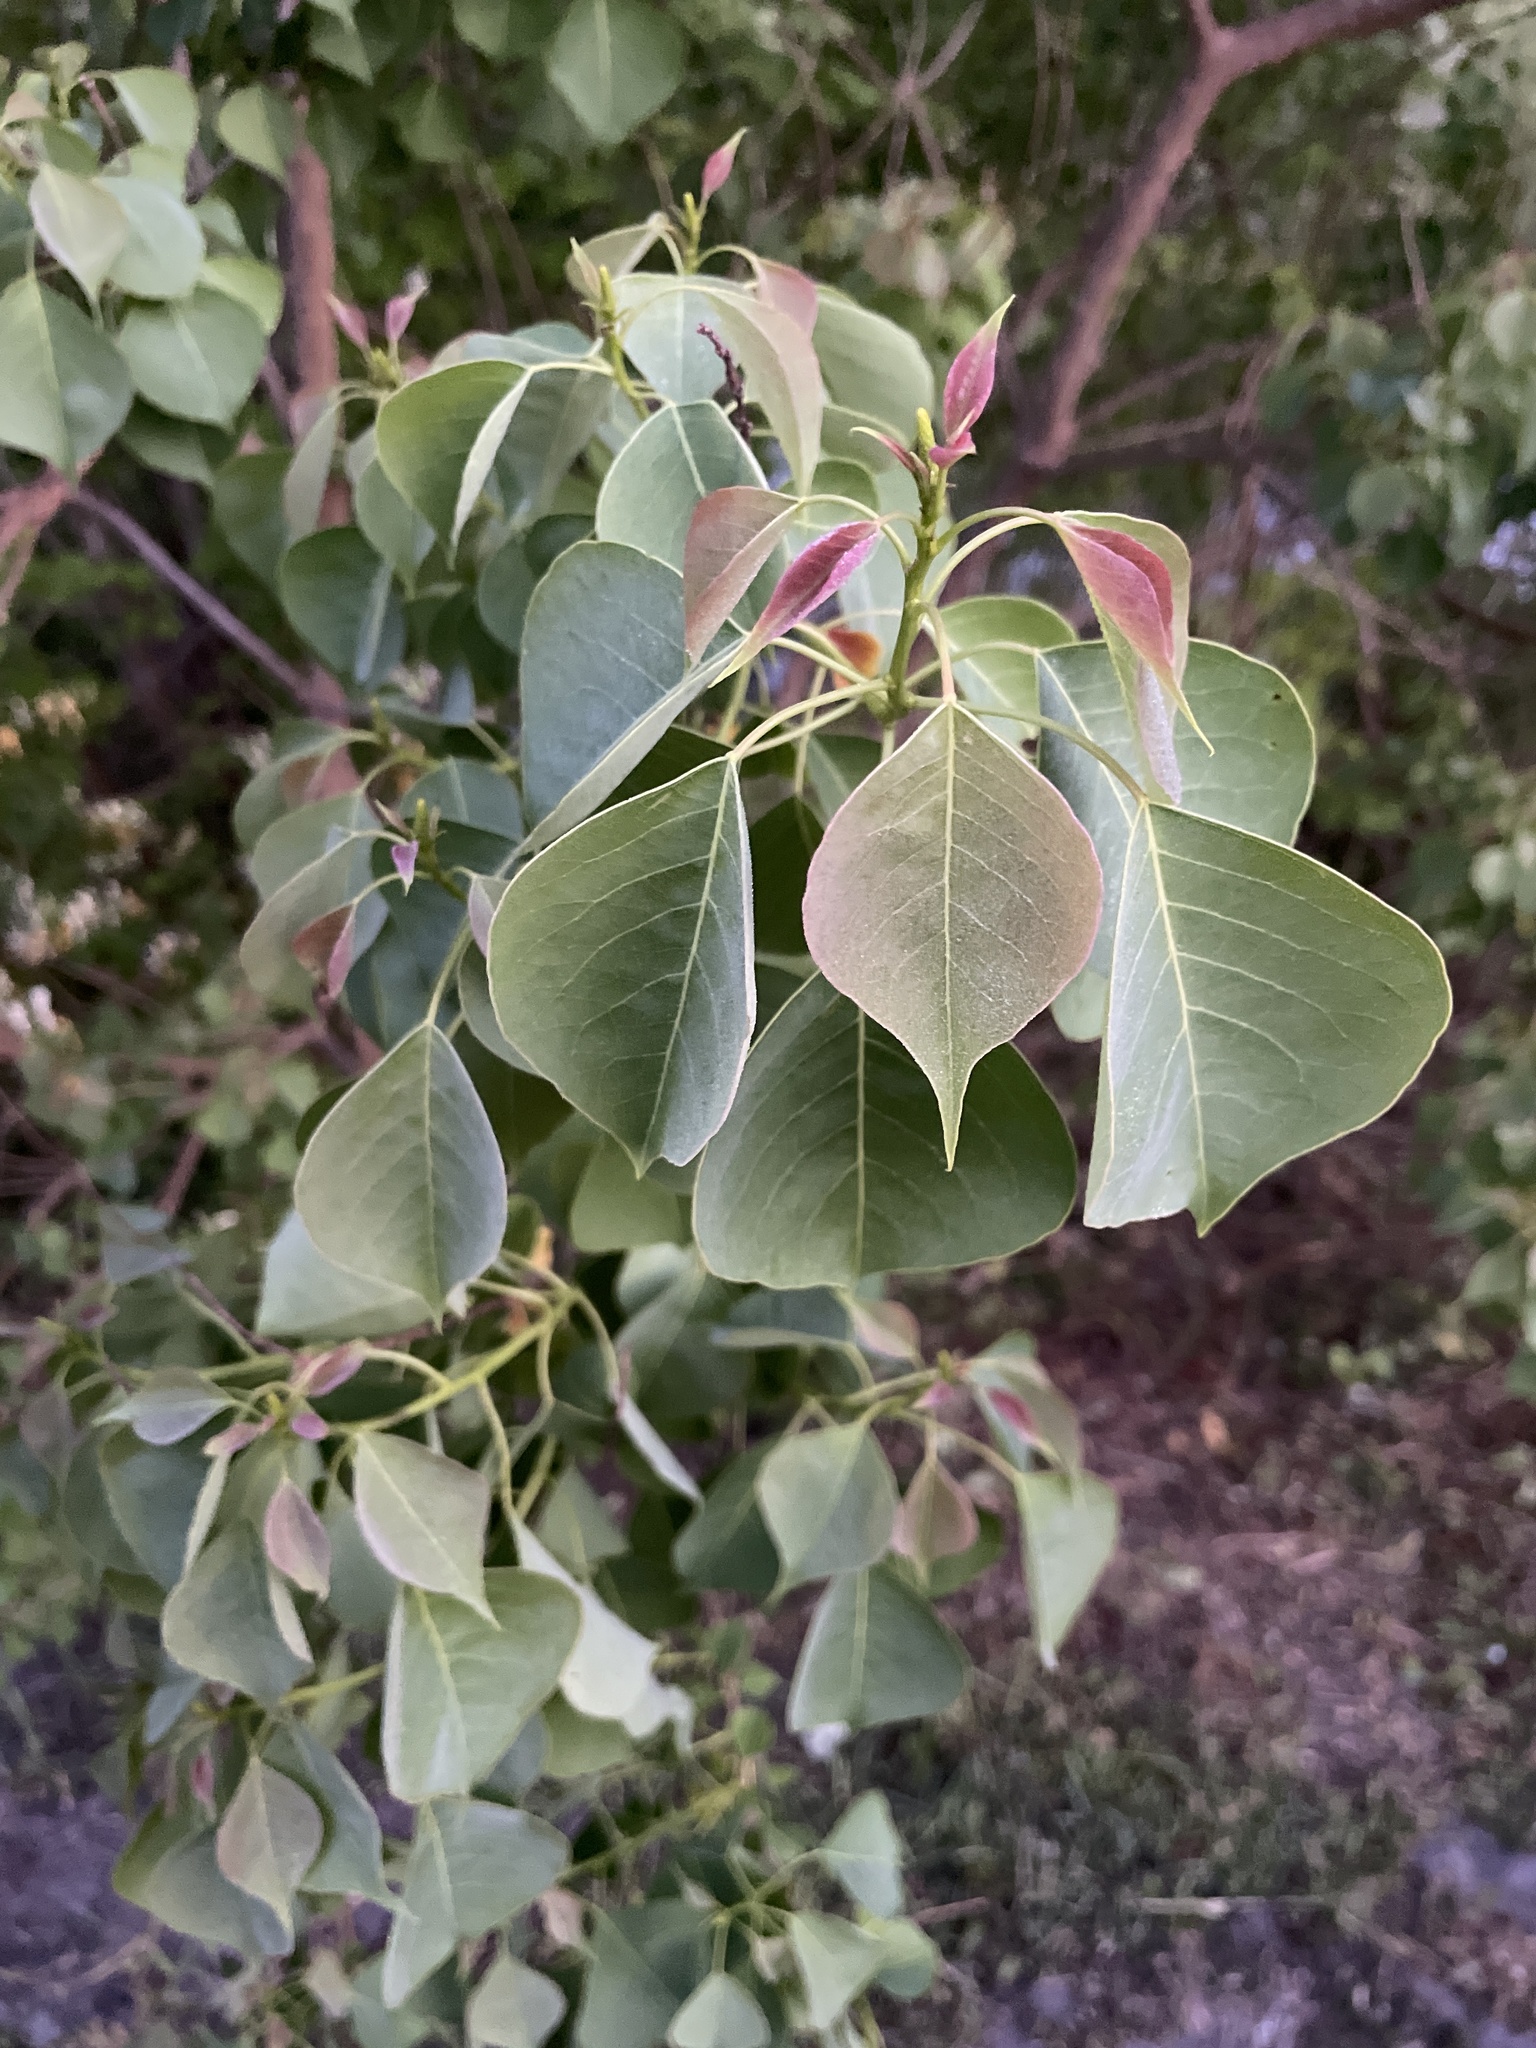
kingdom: Plantae
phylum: Tracheophyta
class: Magnoliopsida
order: Malpighiales
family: Euphorbiaceae
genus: Triadica
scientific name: Triadica sebifera
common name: Chinese tallow
